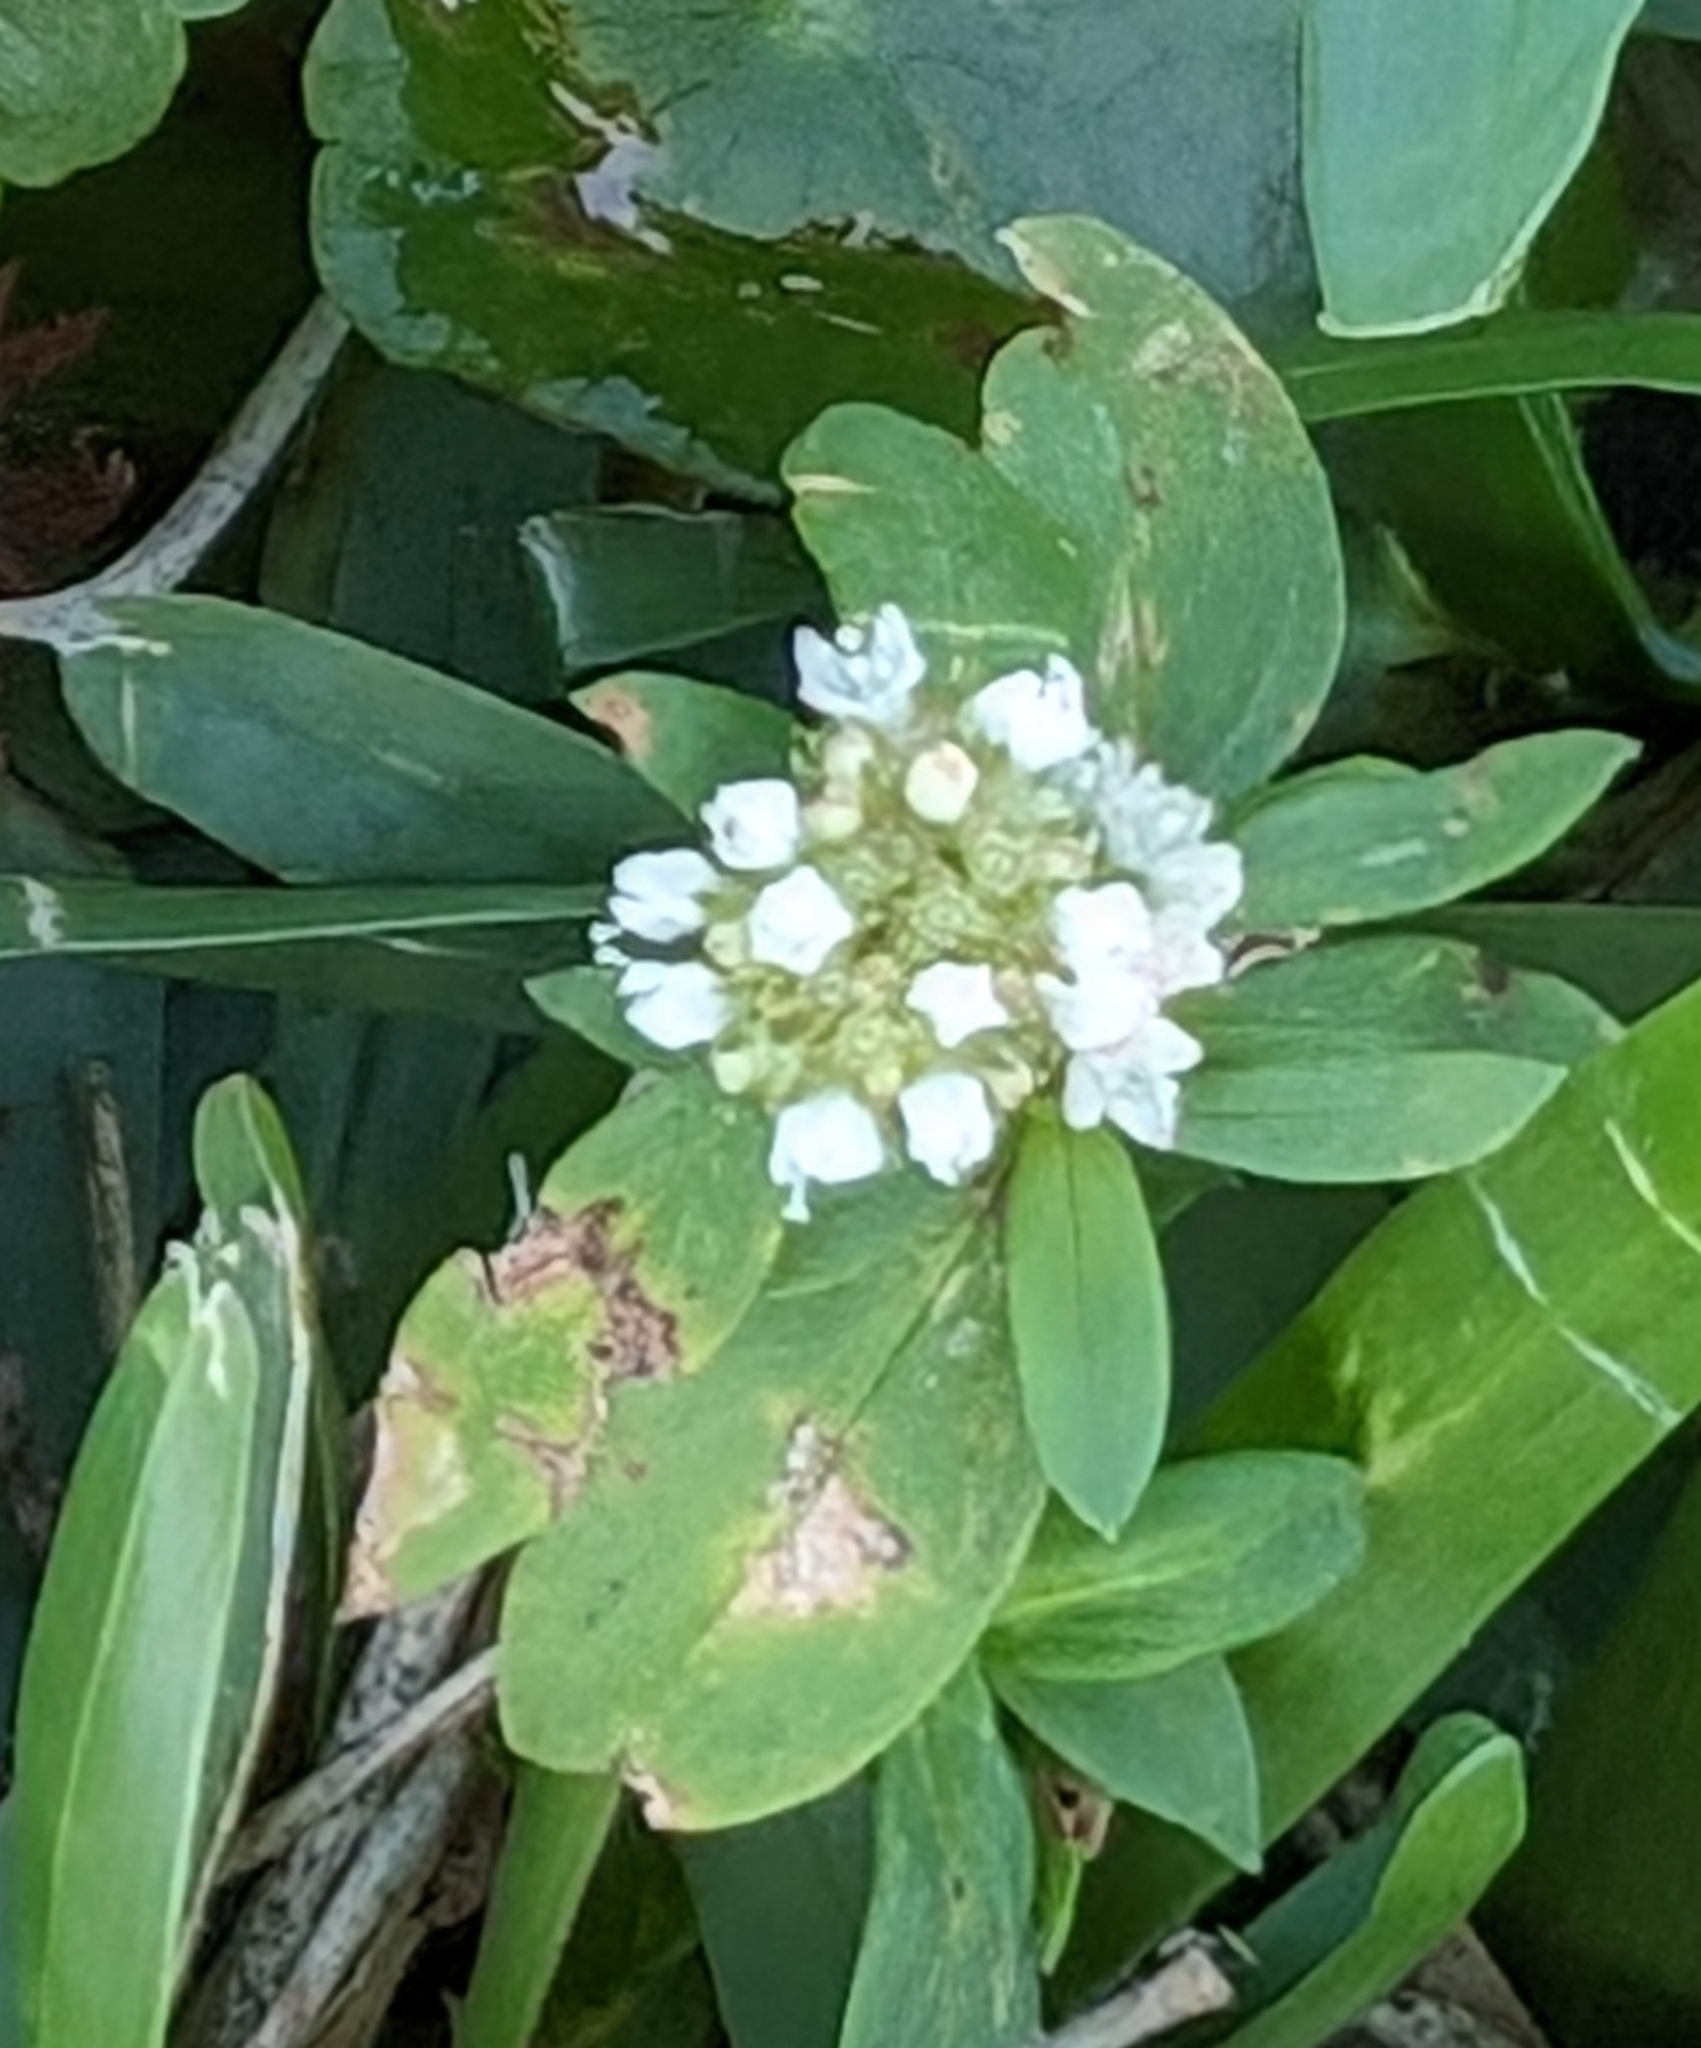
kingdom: Plantae
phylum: Tracheophyta
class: Magnoliopsida
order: Gentianales
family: Rubiaceae
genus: Spermacoce
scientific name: Spermacoce verticillata
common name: Shrubby false buttonweed
